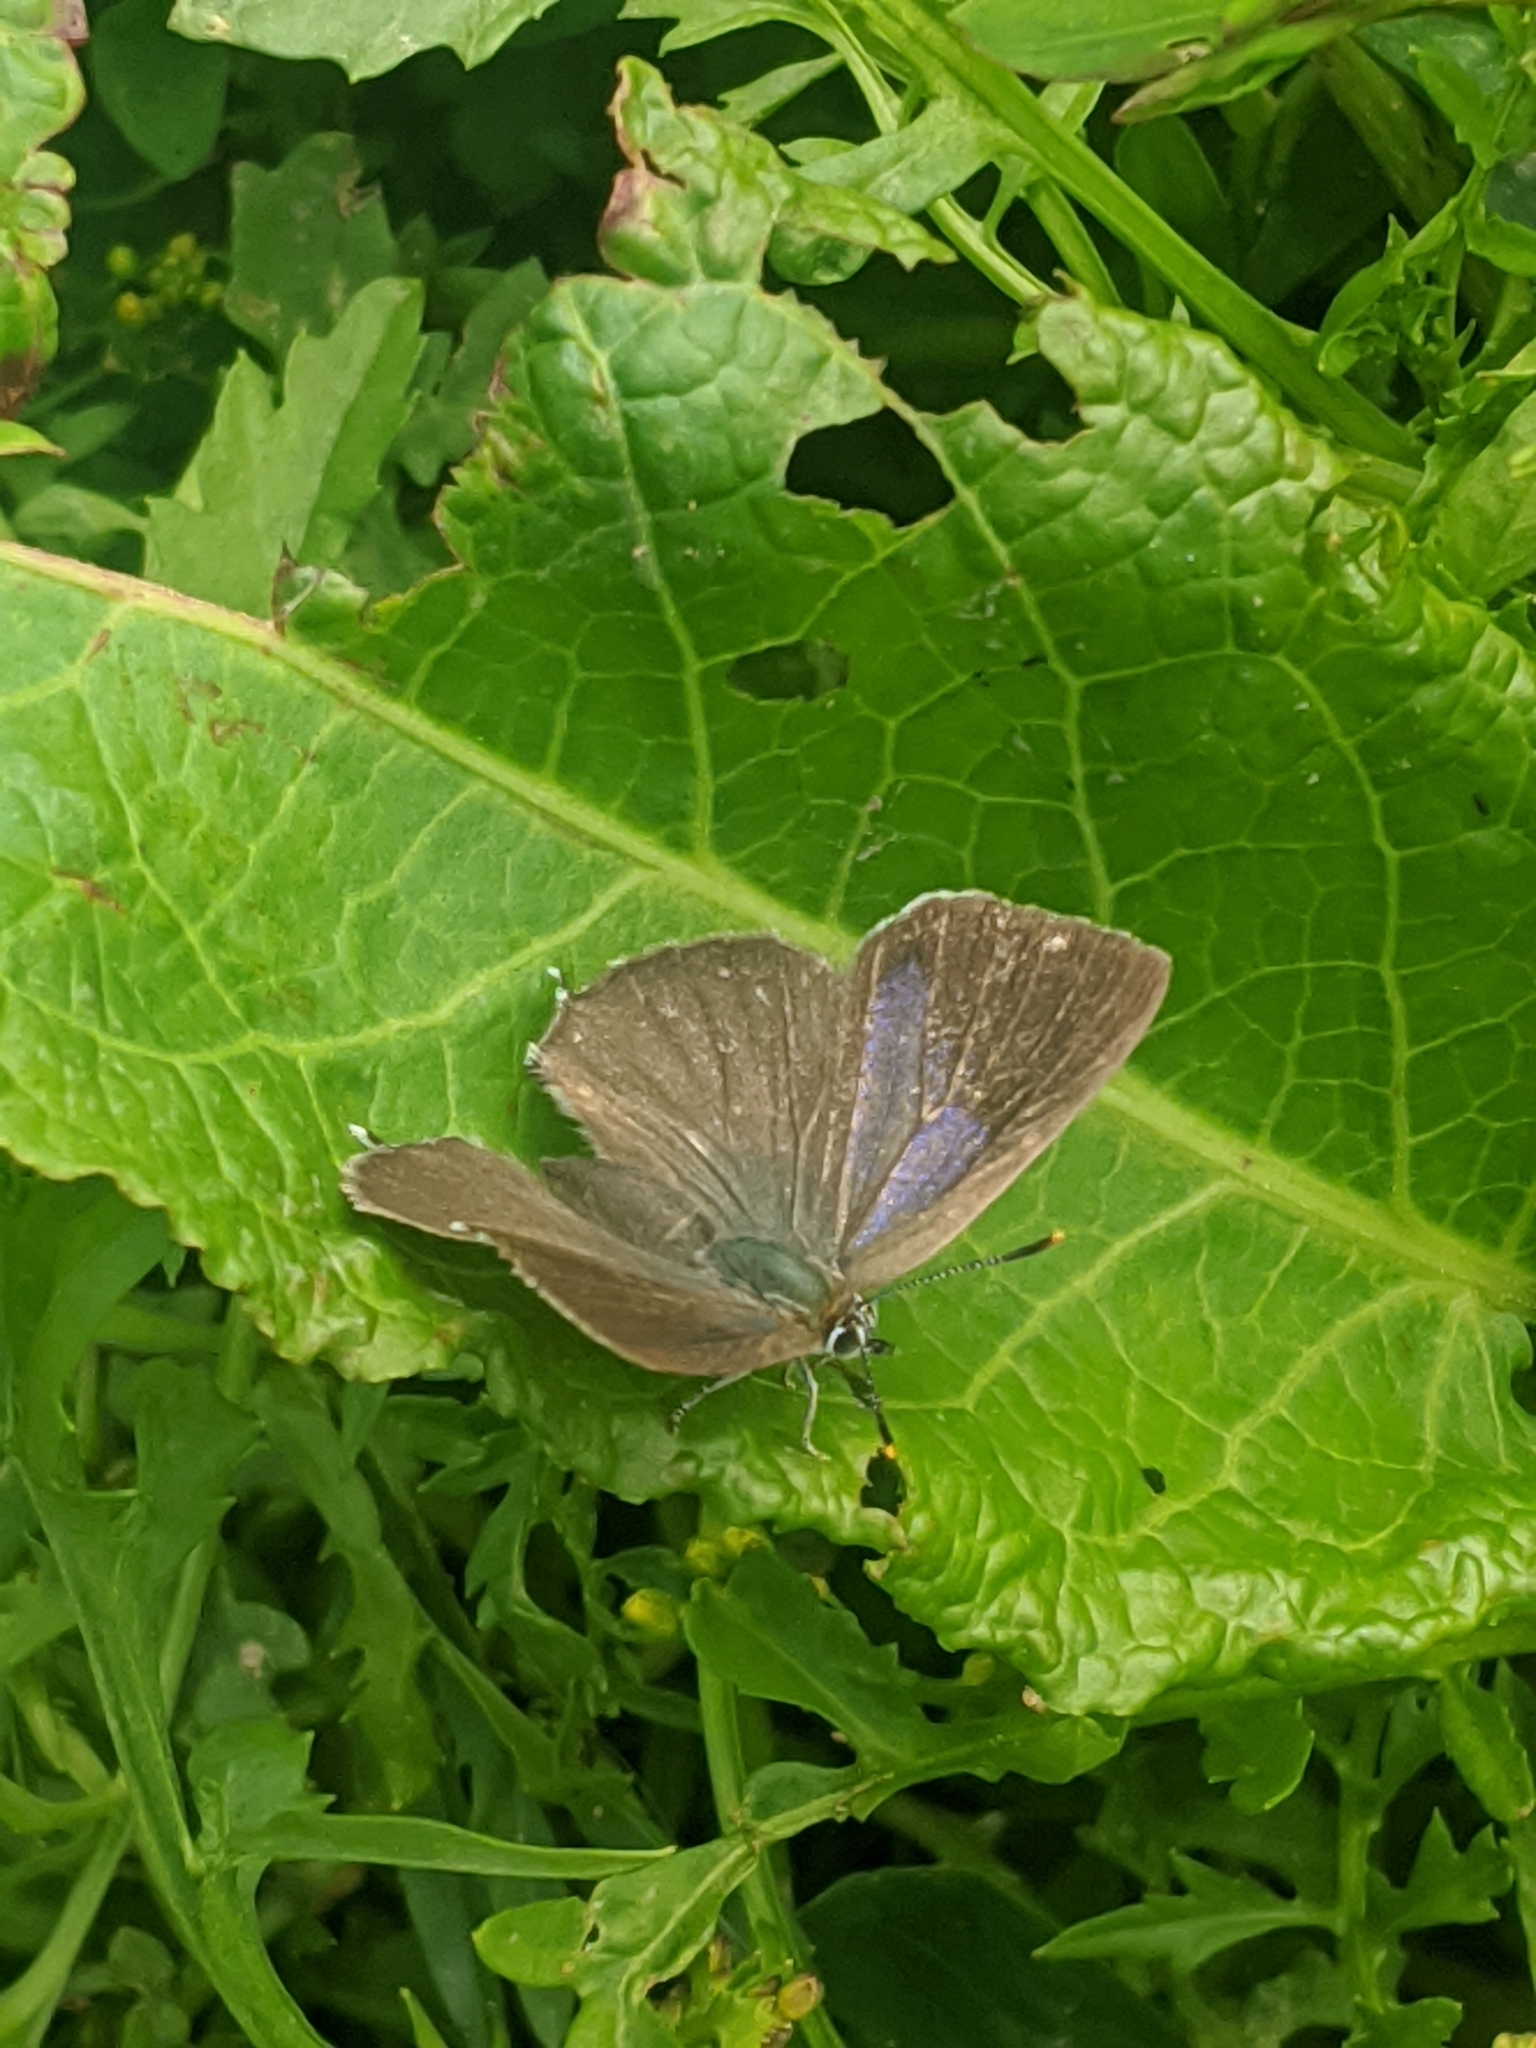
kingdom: Animalia
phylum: Arthropoda
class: Insecta
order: Lepidoptera
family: Lycaenidae
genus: Quercusia
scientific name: Quercusia quercus
